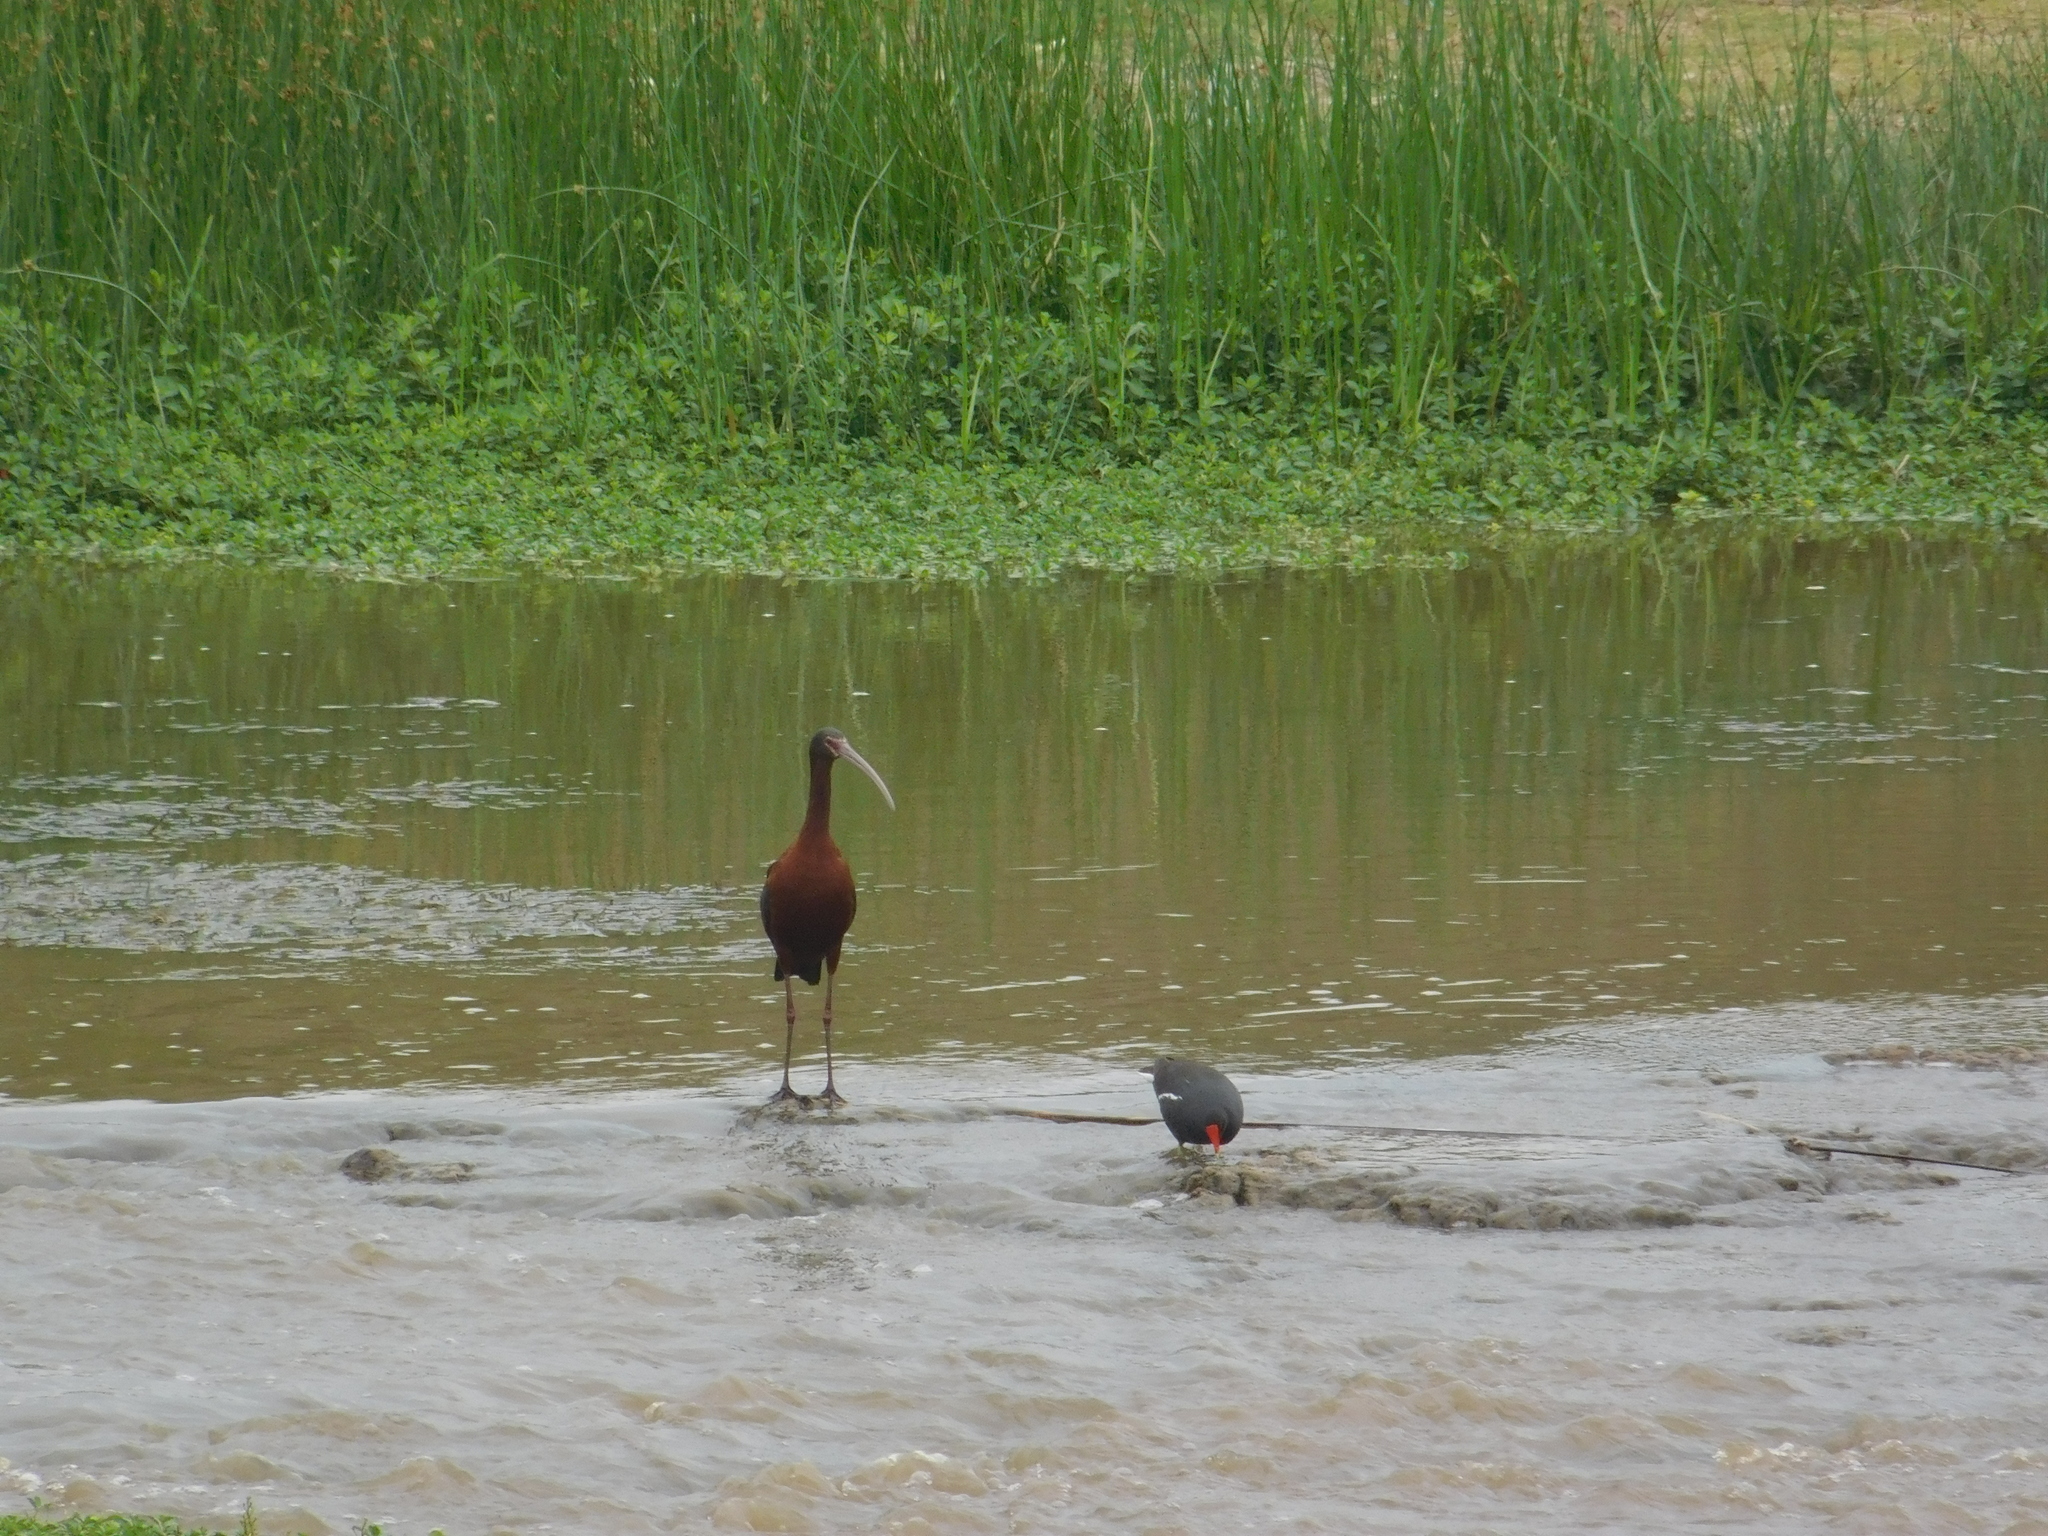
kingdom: Animalia
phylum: Chordata
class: Aves
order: Gruiformes
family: Rallidae
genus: Gallinula
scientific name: Gallinula chloropus
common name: Common moorhen
